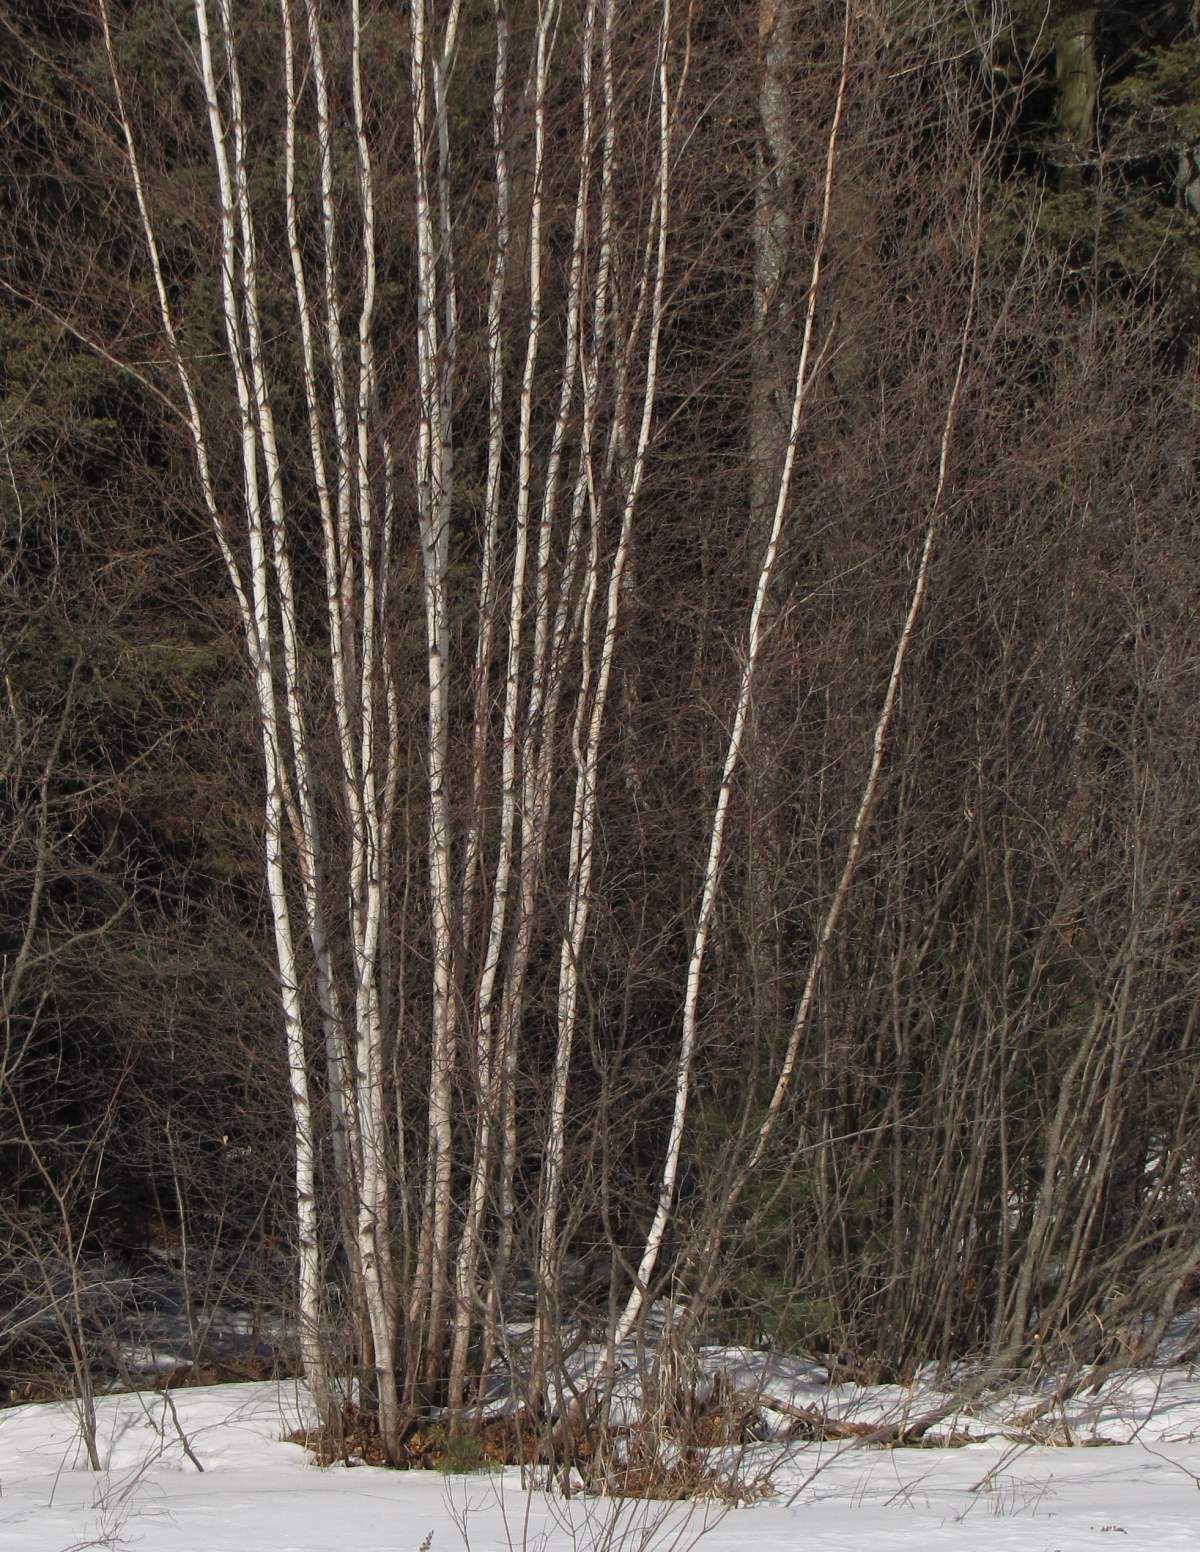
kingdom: Plantae
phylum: Tracheophyta
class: Magnoliopsida
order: Fagales
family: Betulaceae
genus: Betula
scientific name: Betula populifolia
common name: Fire birch
